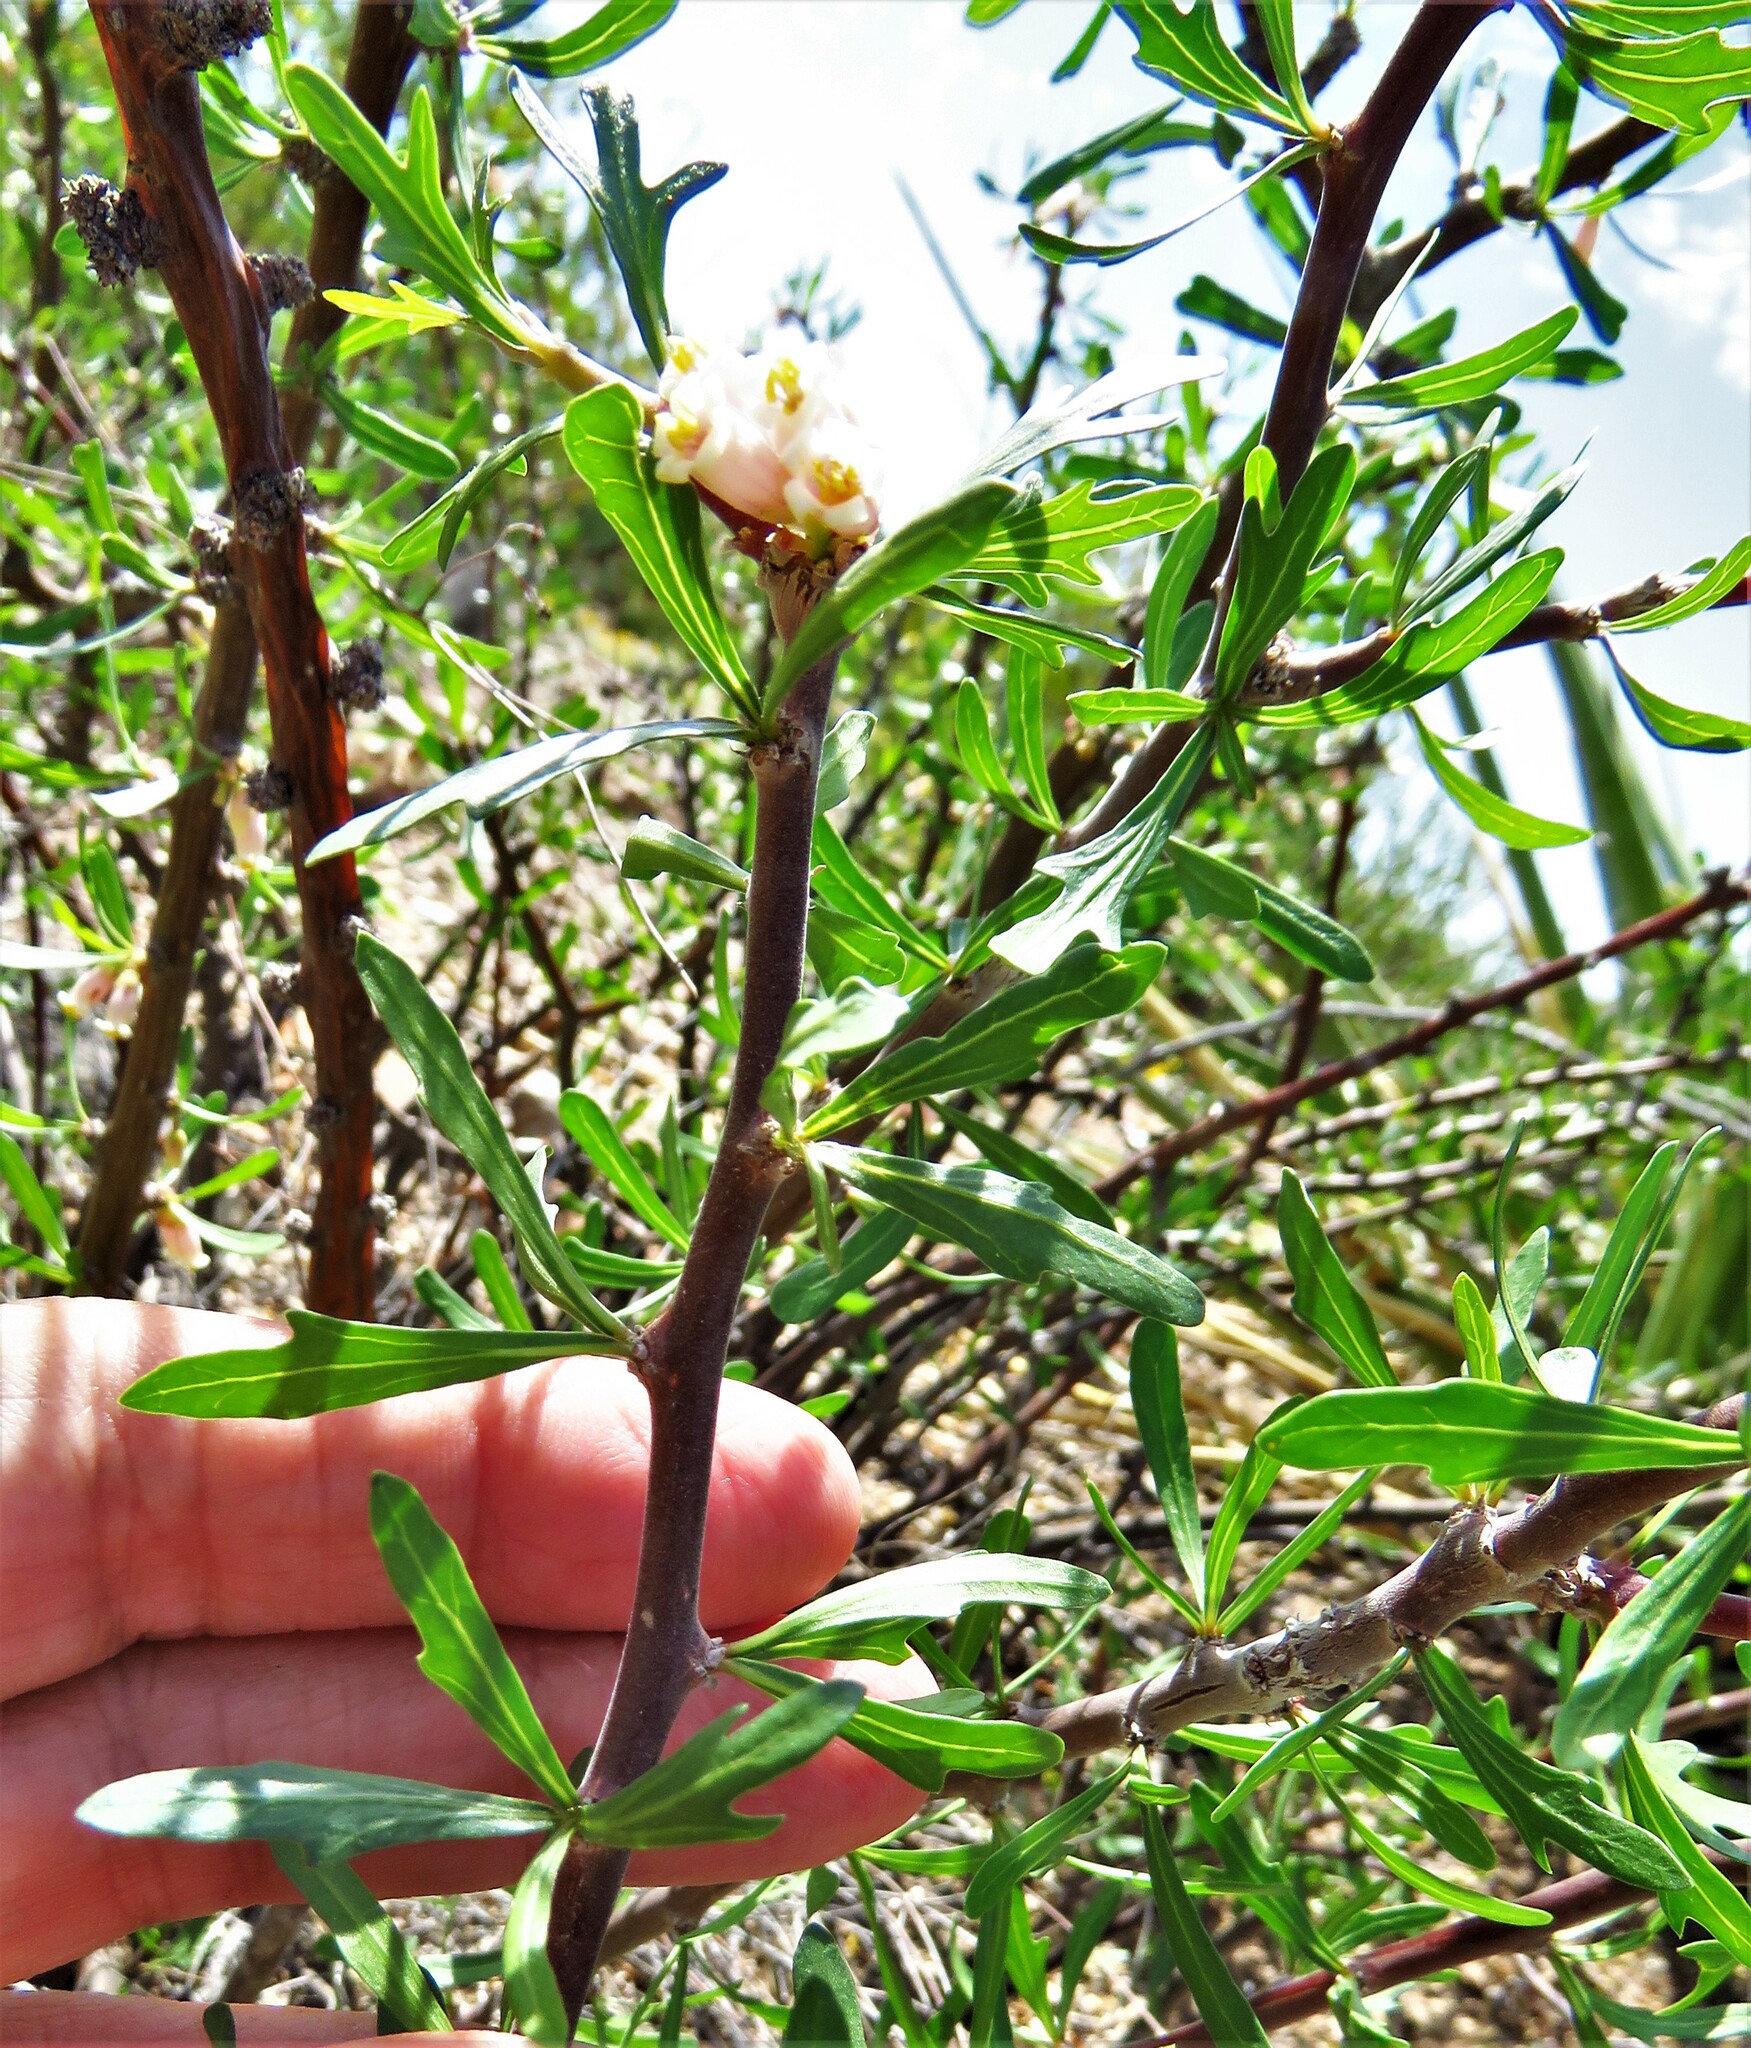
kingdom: Plantae
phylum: Tracheophyta
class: Magnoliopsida
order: Malpighiales
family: Euphorbiaceae
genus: Jatropha
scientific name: Jatropha dioica
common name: Leatherstem
